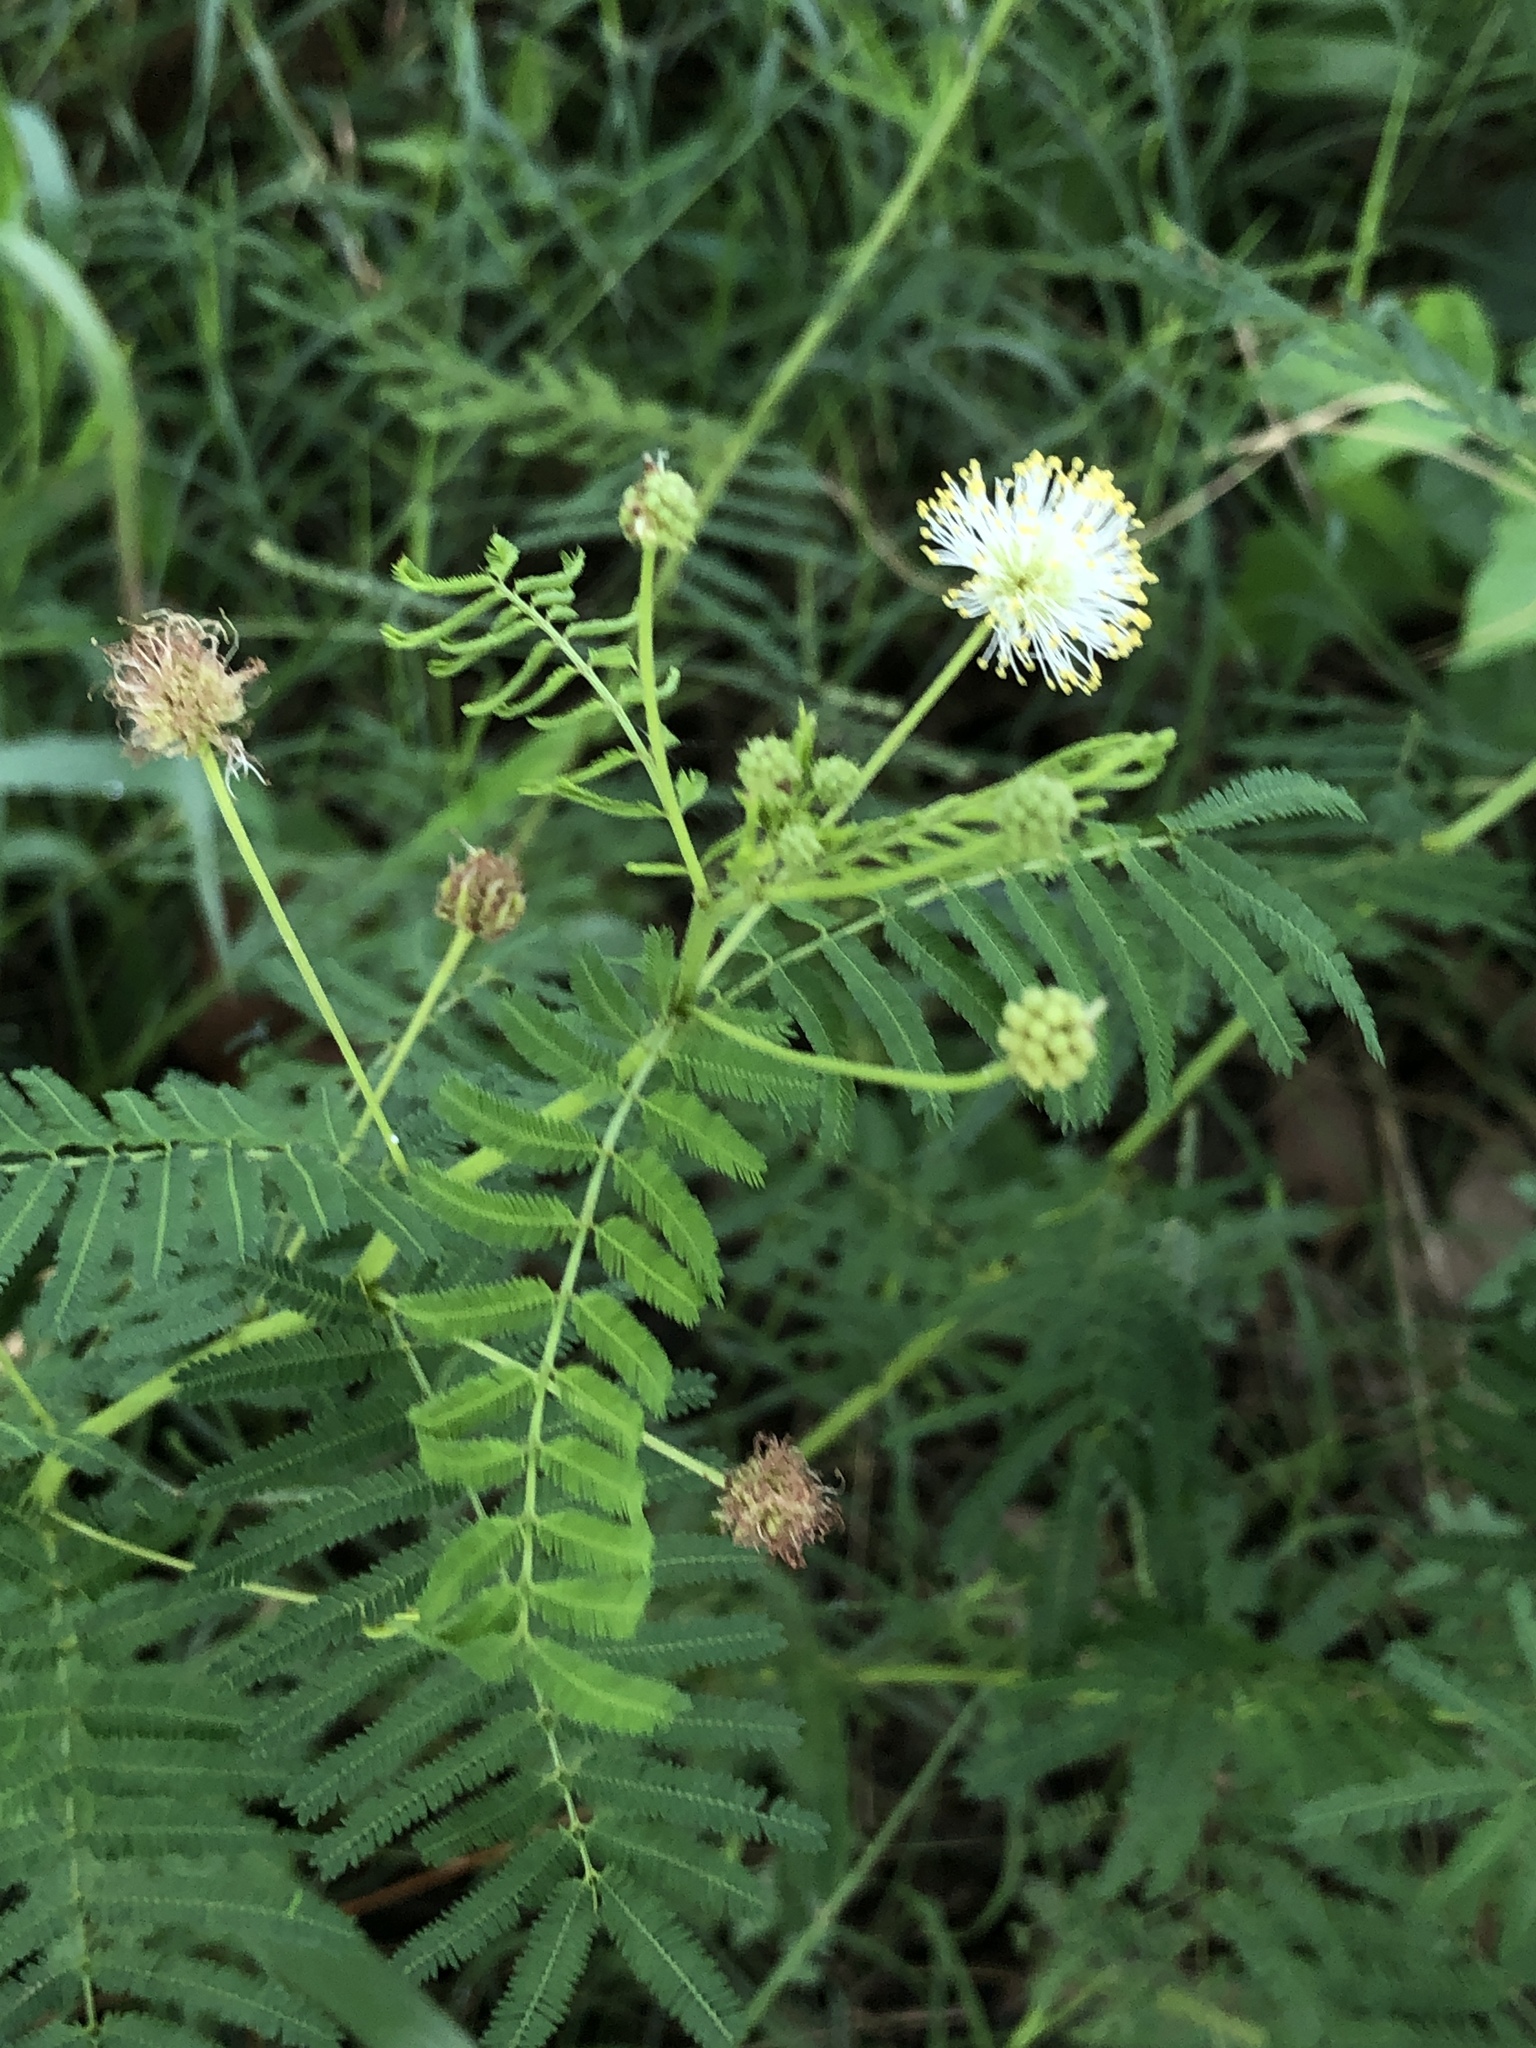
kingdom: Plantae
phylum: Tracheophyta
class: Magnoliopsida
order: Fabales
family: Fabaceae
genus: Desmanthus
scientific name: Desmanthus illinoensis
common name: Illinois bundle-flower
